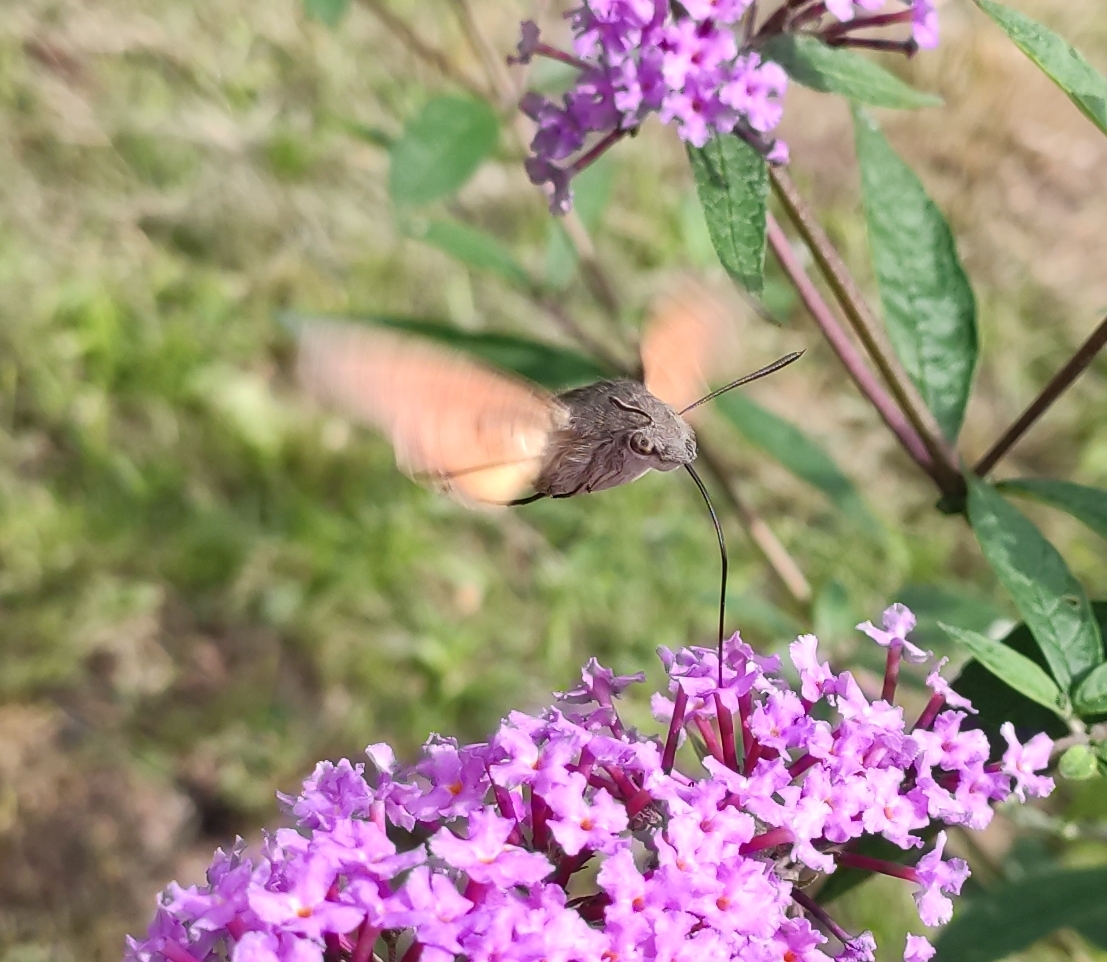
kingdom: Animalia
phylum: Arthropoda
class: Insecta
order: Lepidoptera
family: Sphingidae
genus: Macroglossum
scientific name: Macroglossum stellatarum
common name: Humming-bird hawk-moth
